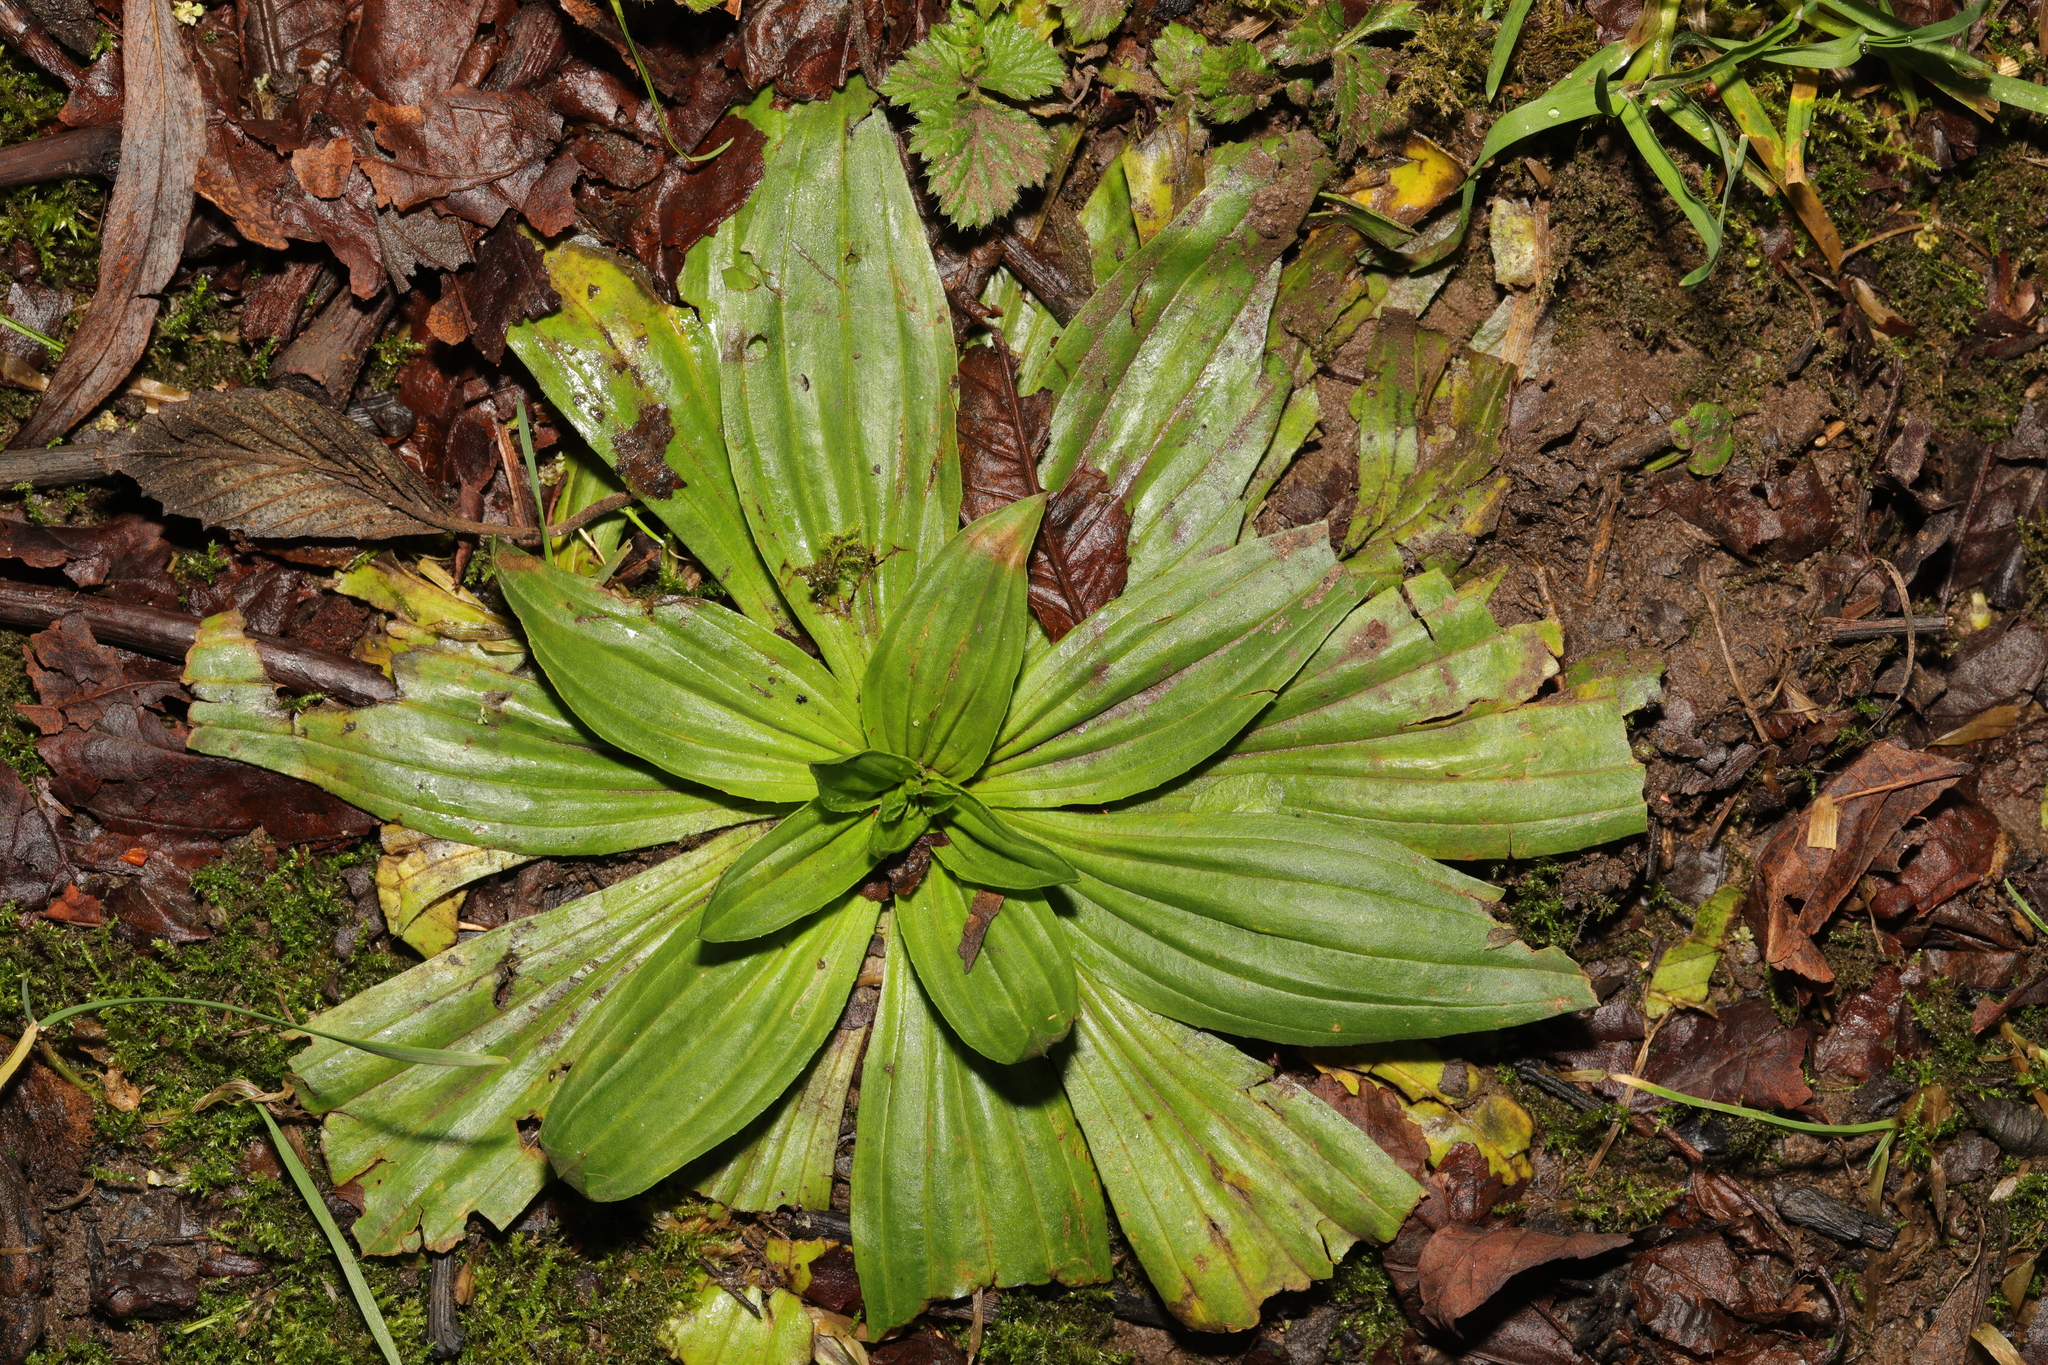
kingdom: Plantae
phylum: Tracheophyta
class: Magnoliopsida
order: Lamiales
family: Plantaginaceae
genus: Plantago
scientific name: Plantago lanceolata
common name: Ribwort plantain
